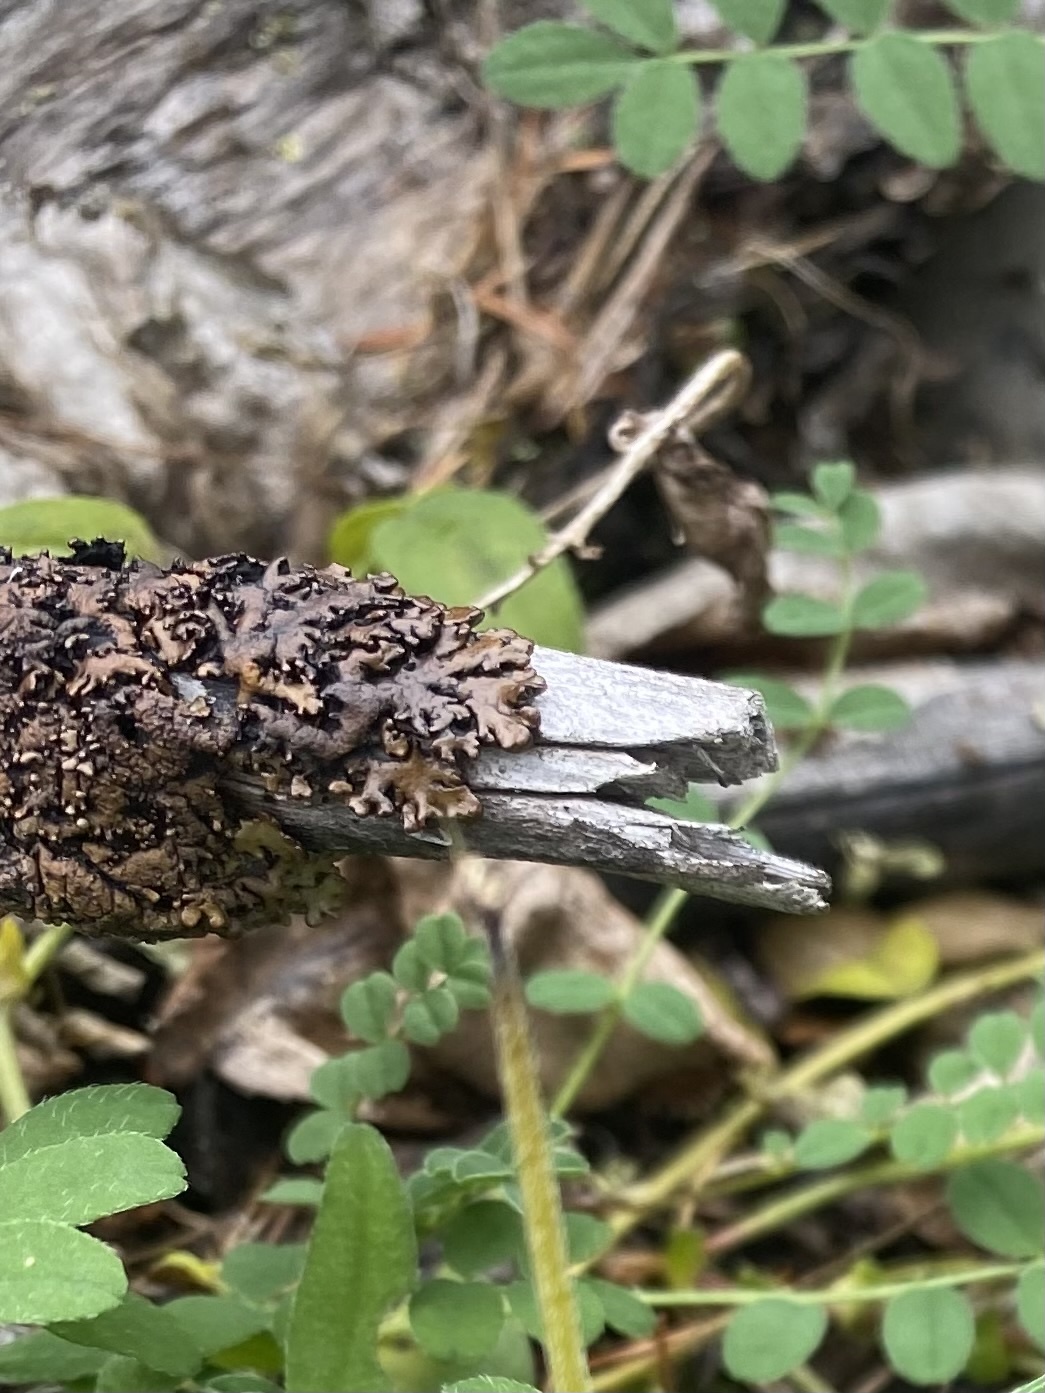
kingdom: Fungi
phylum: Ascomycota
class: Lecanoromycetes
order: Lecanorales
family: Parmeliaceae
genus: Melanelixia
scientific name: Melanelixia fuliginosa
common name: Shiny camouflage lichen
